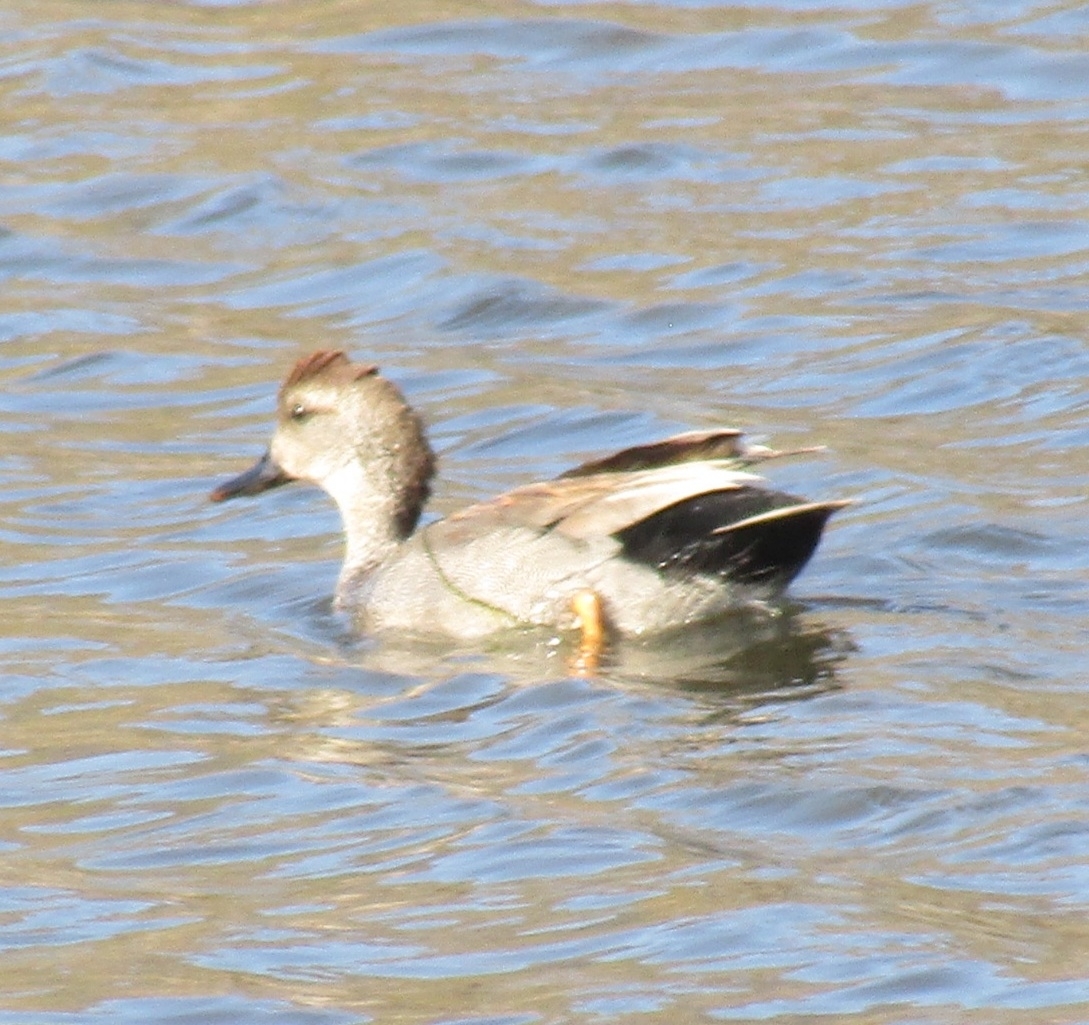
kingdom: Animalia
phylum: Chordata
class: Aves
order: Anseriformes
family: Anatidae
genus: Mareca
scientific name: Mareca strepera
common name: Gadwall
